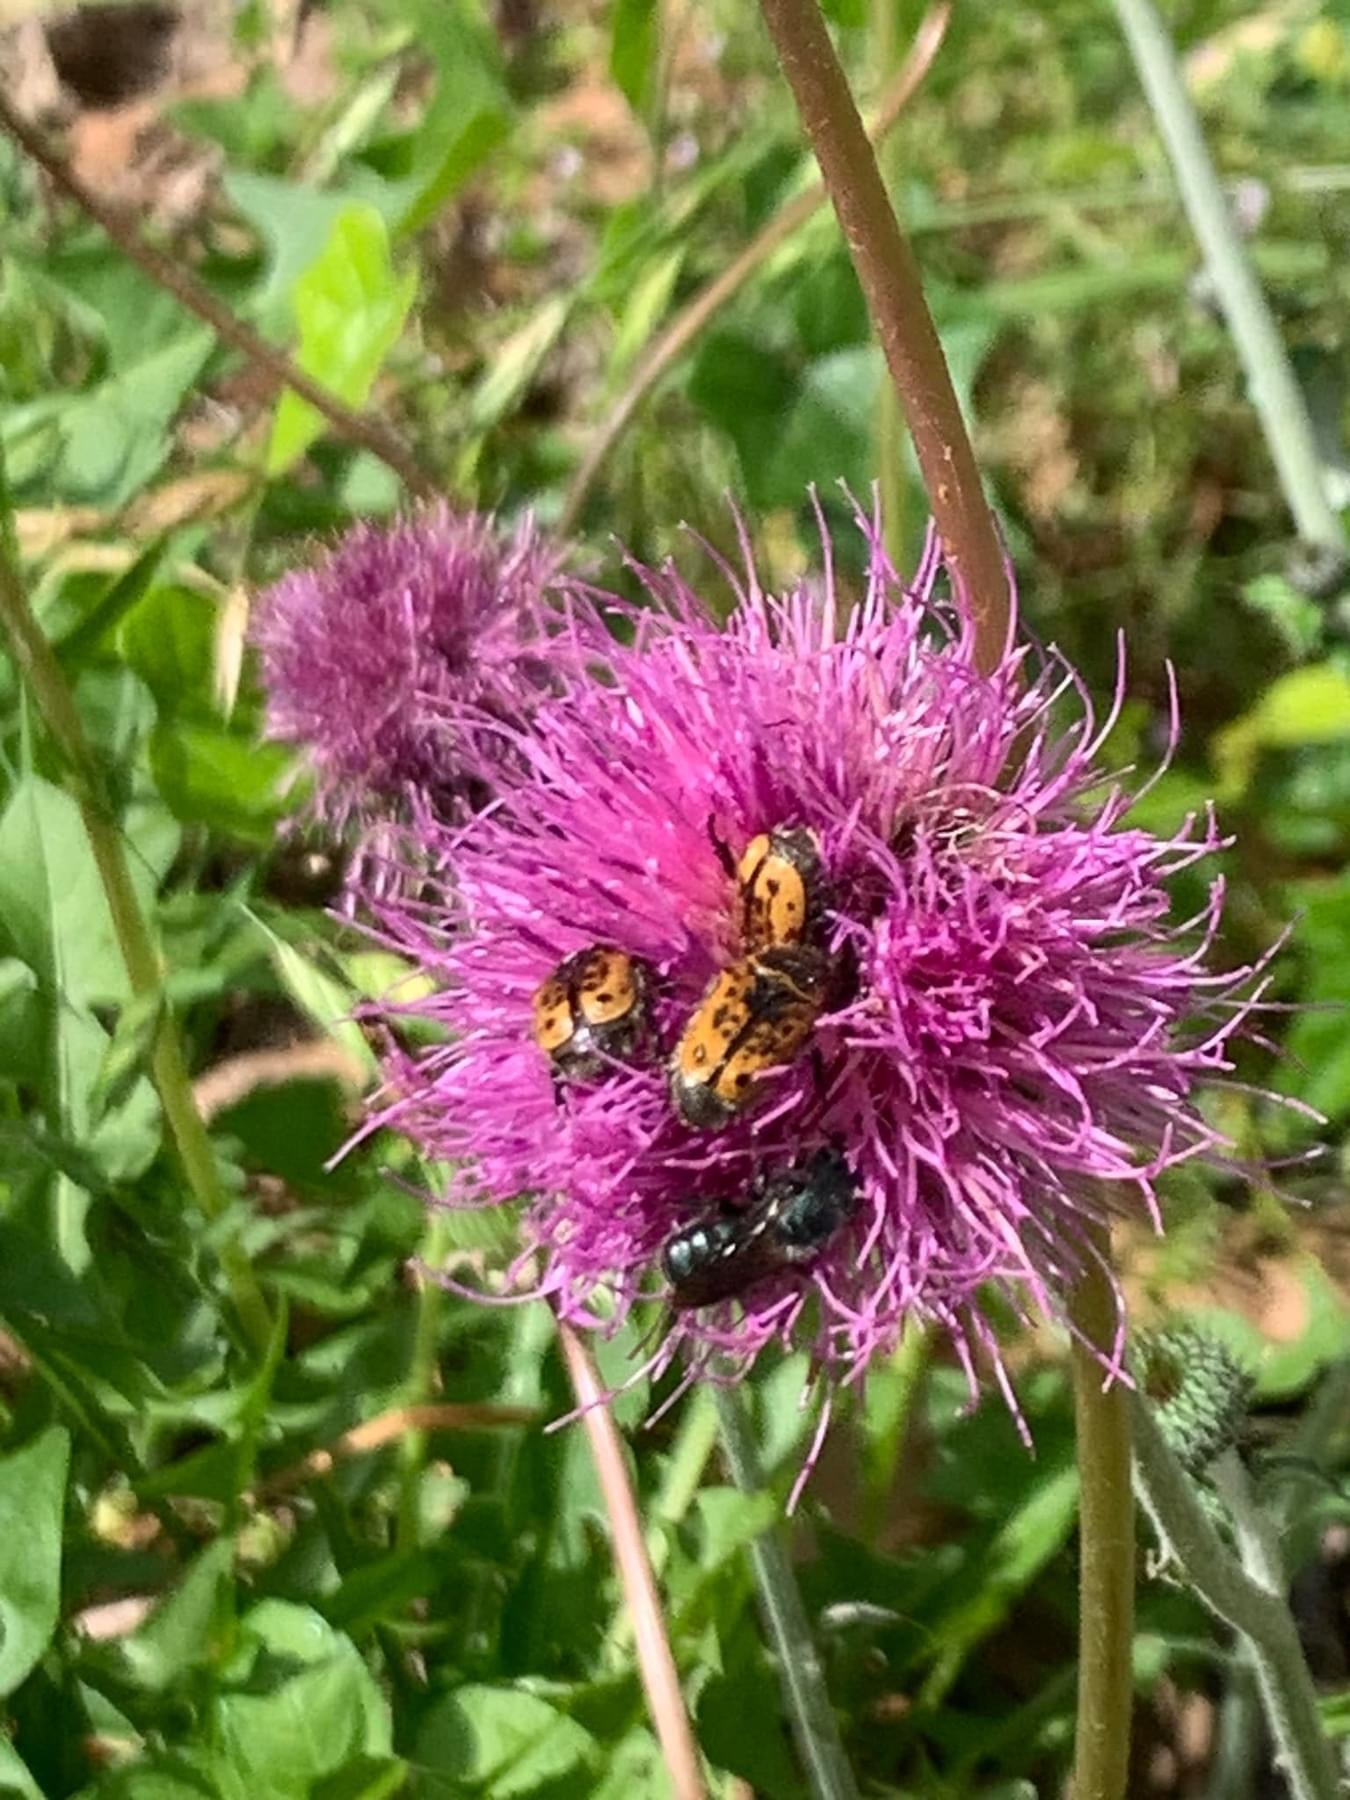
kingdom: Animalia
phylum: Arthropoda
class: Insecta
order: Coleoptera
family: Scarabaeidae
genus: Euphoria
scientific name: Euphoria kernii
